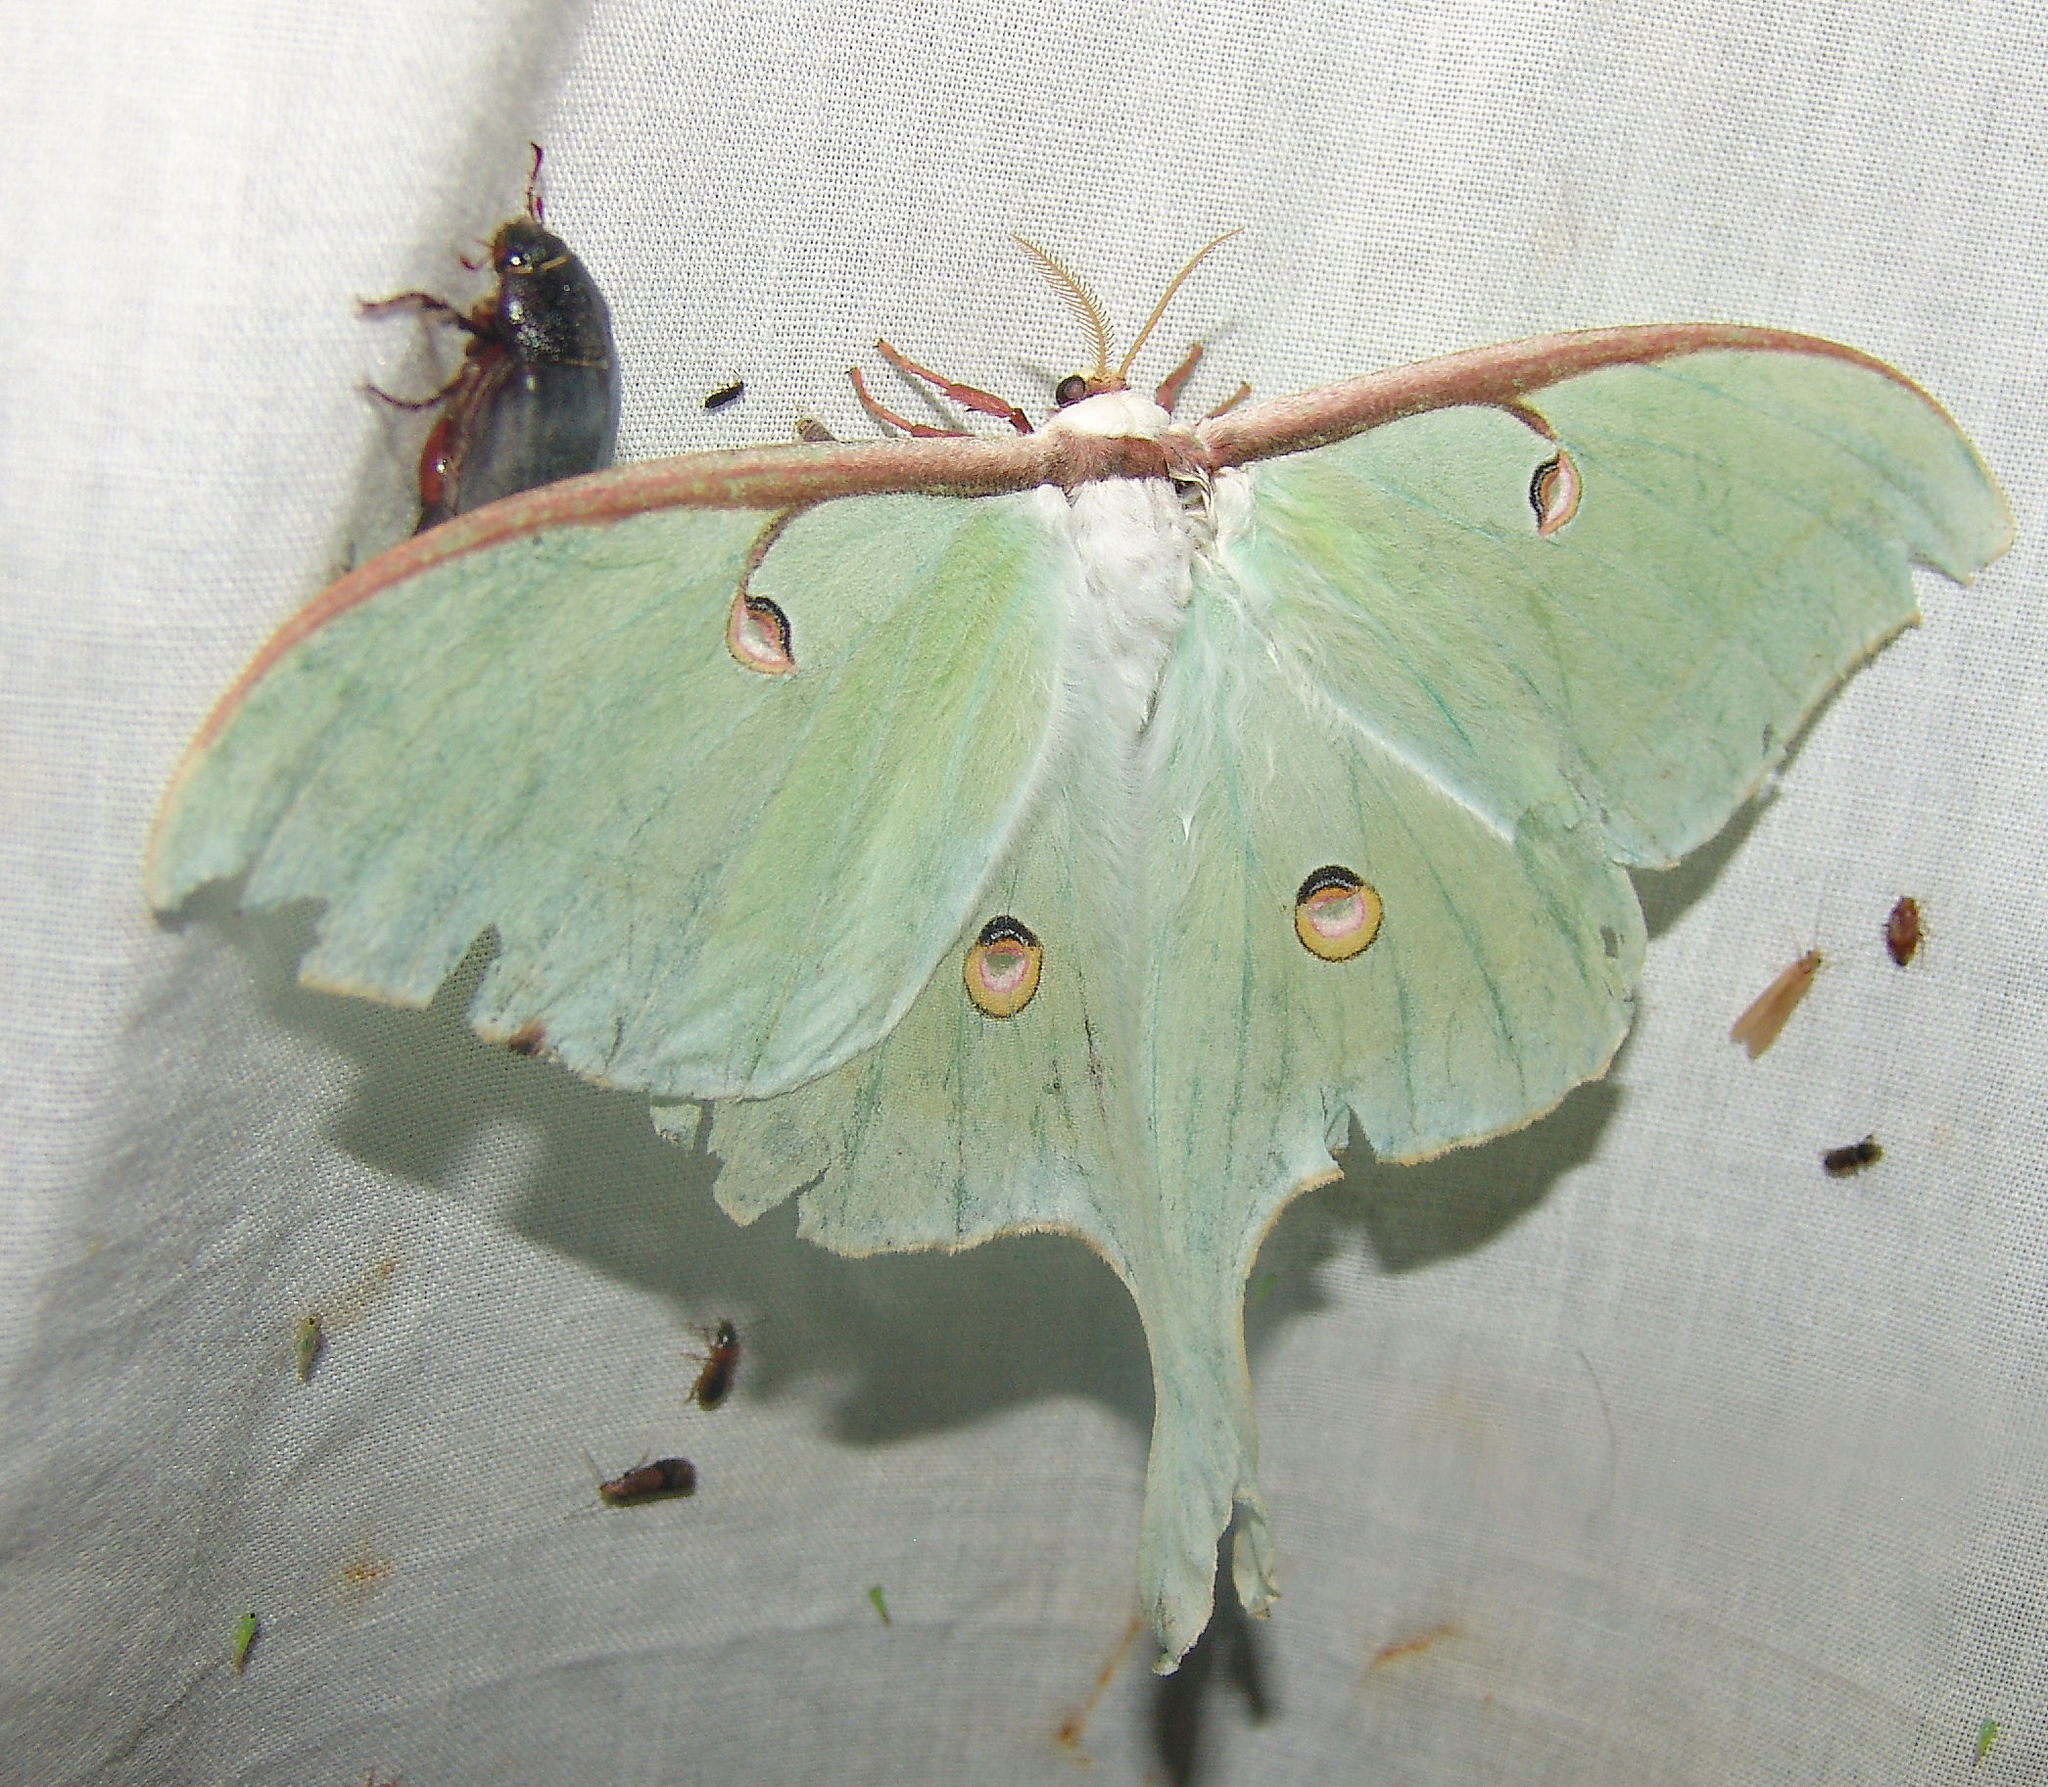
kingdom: Animalia
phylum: Arthropoda
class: Insecta
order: Lepidoptera
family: Saturniidae
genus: Actias
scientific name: Actias luna
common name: Luna moth
